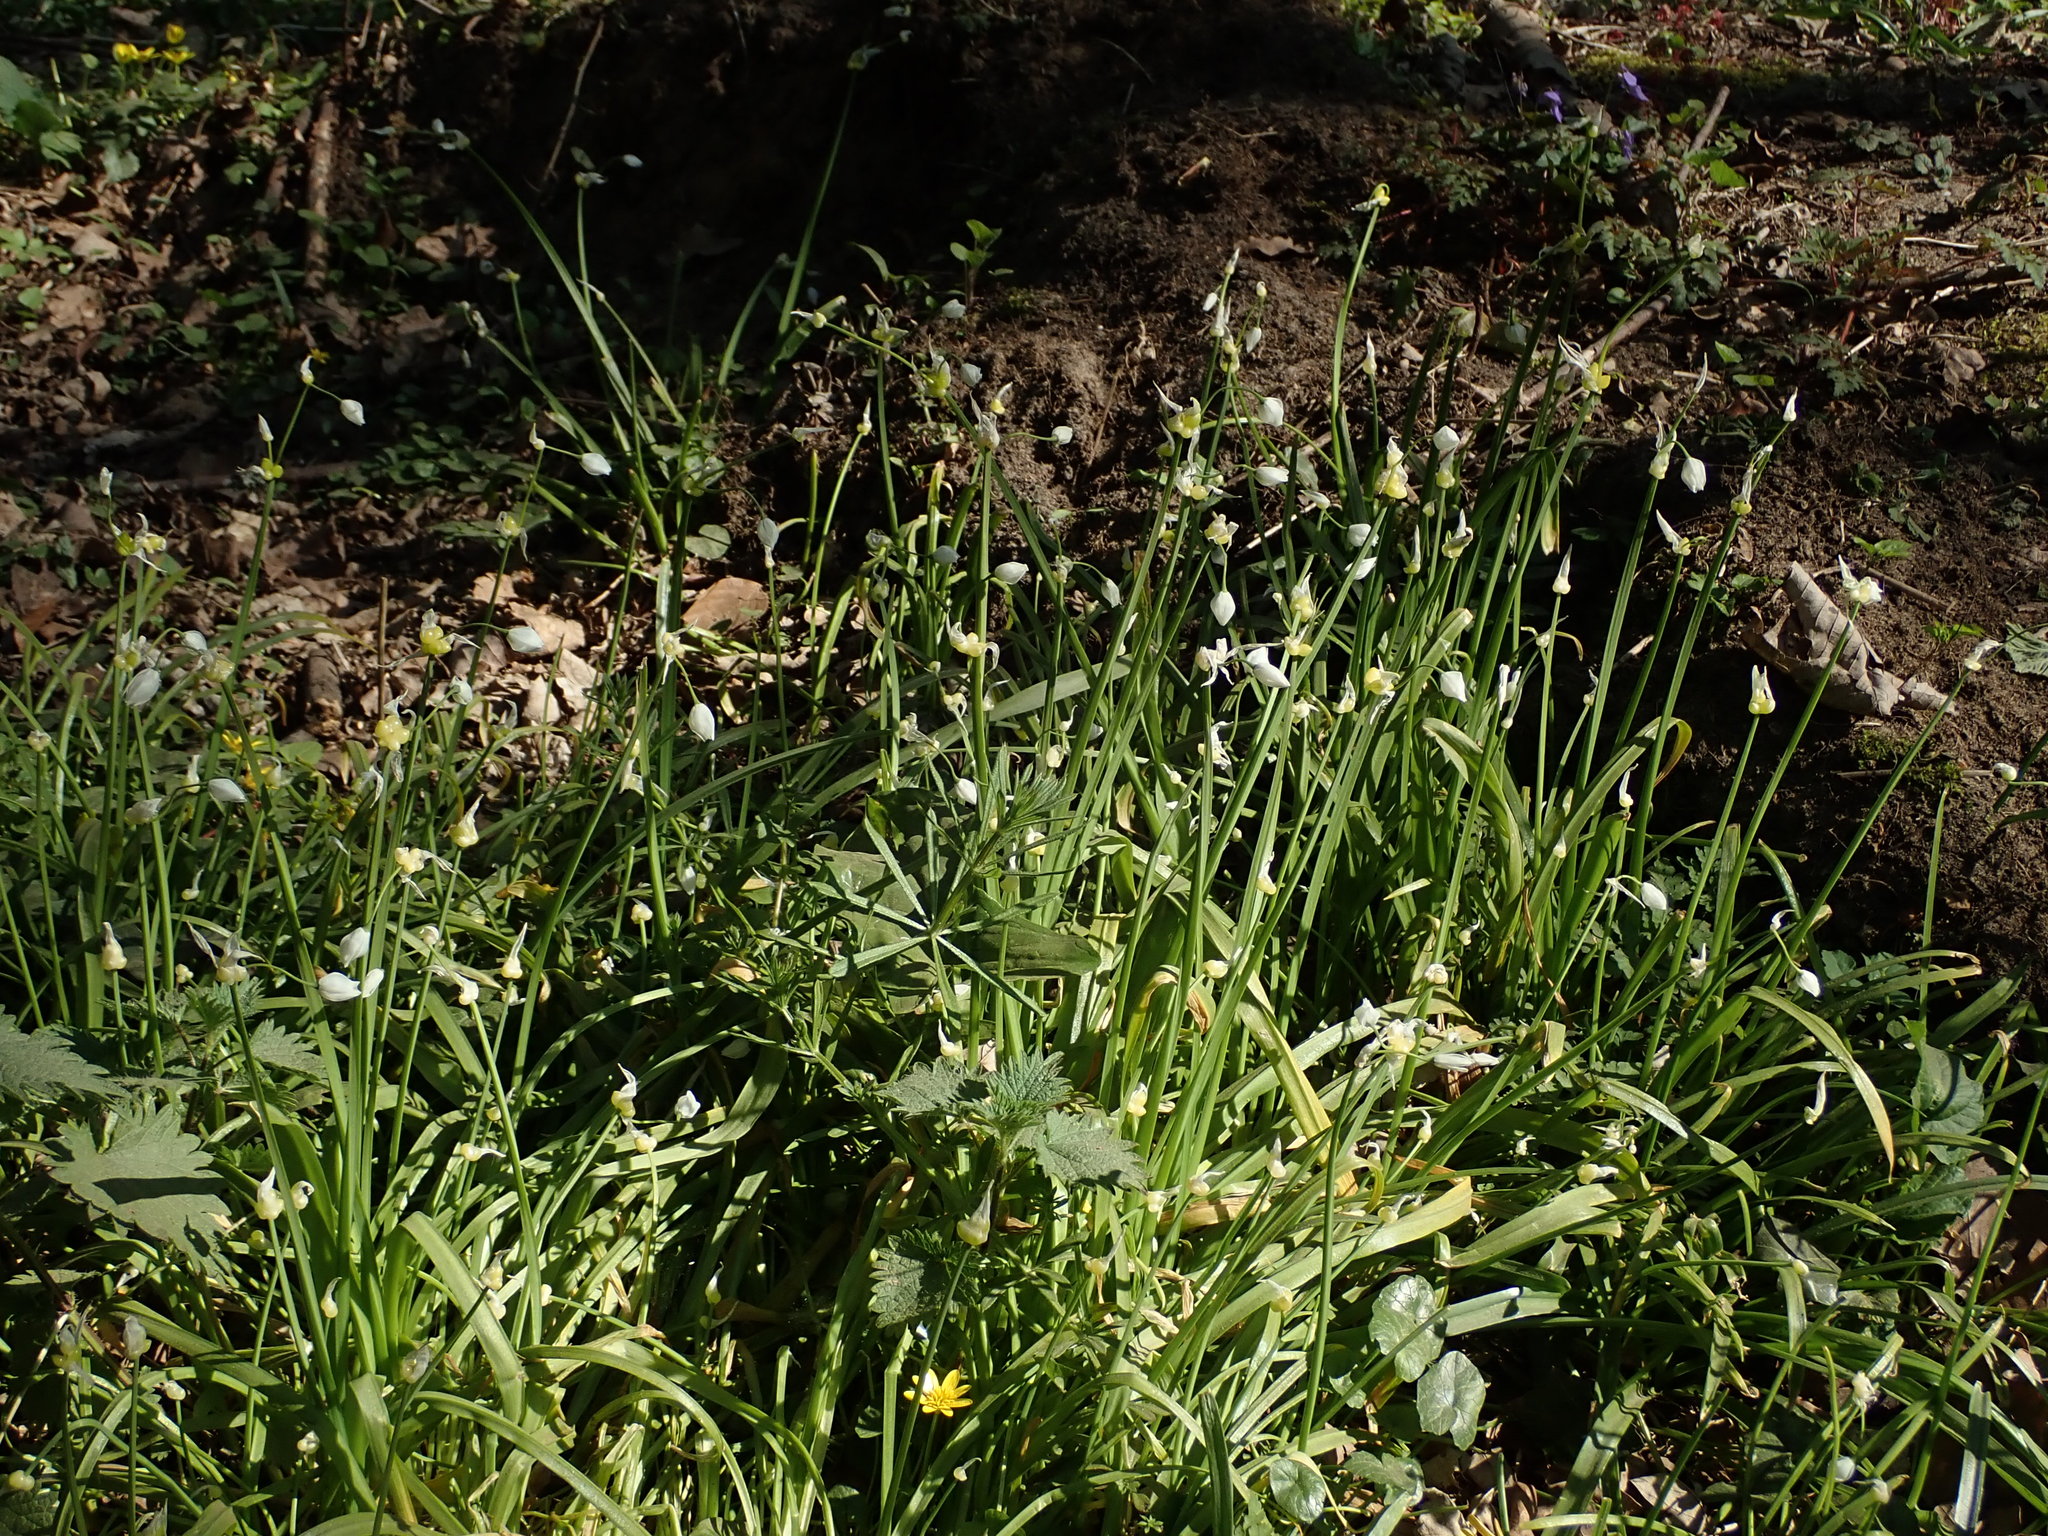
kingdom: Plantae
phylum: Tracheophyta
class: Liliopsida
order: Asparagales
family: Amaryllidaceae
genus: Allium
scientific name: Allium paradoxum
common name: Few-flowered garlic
